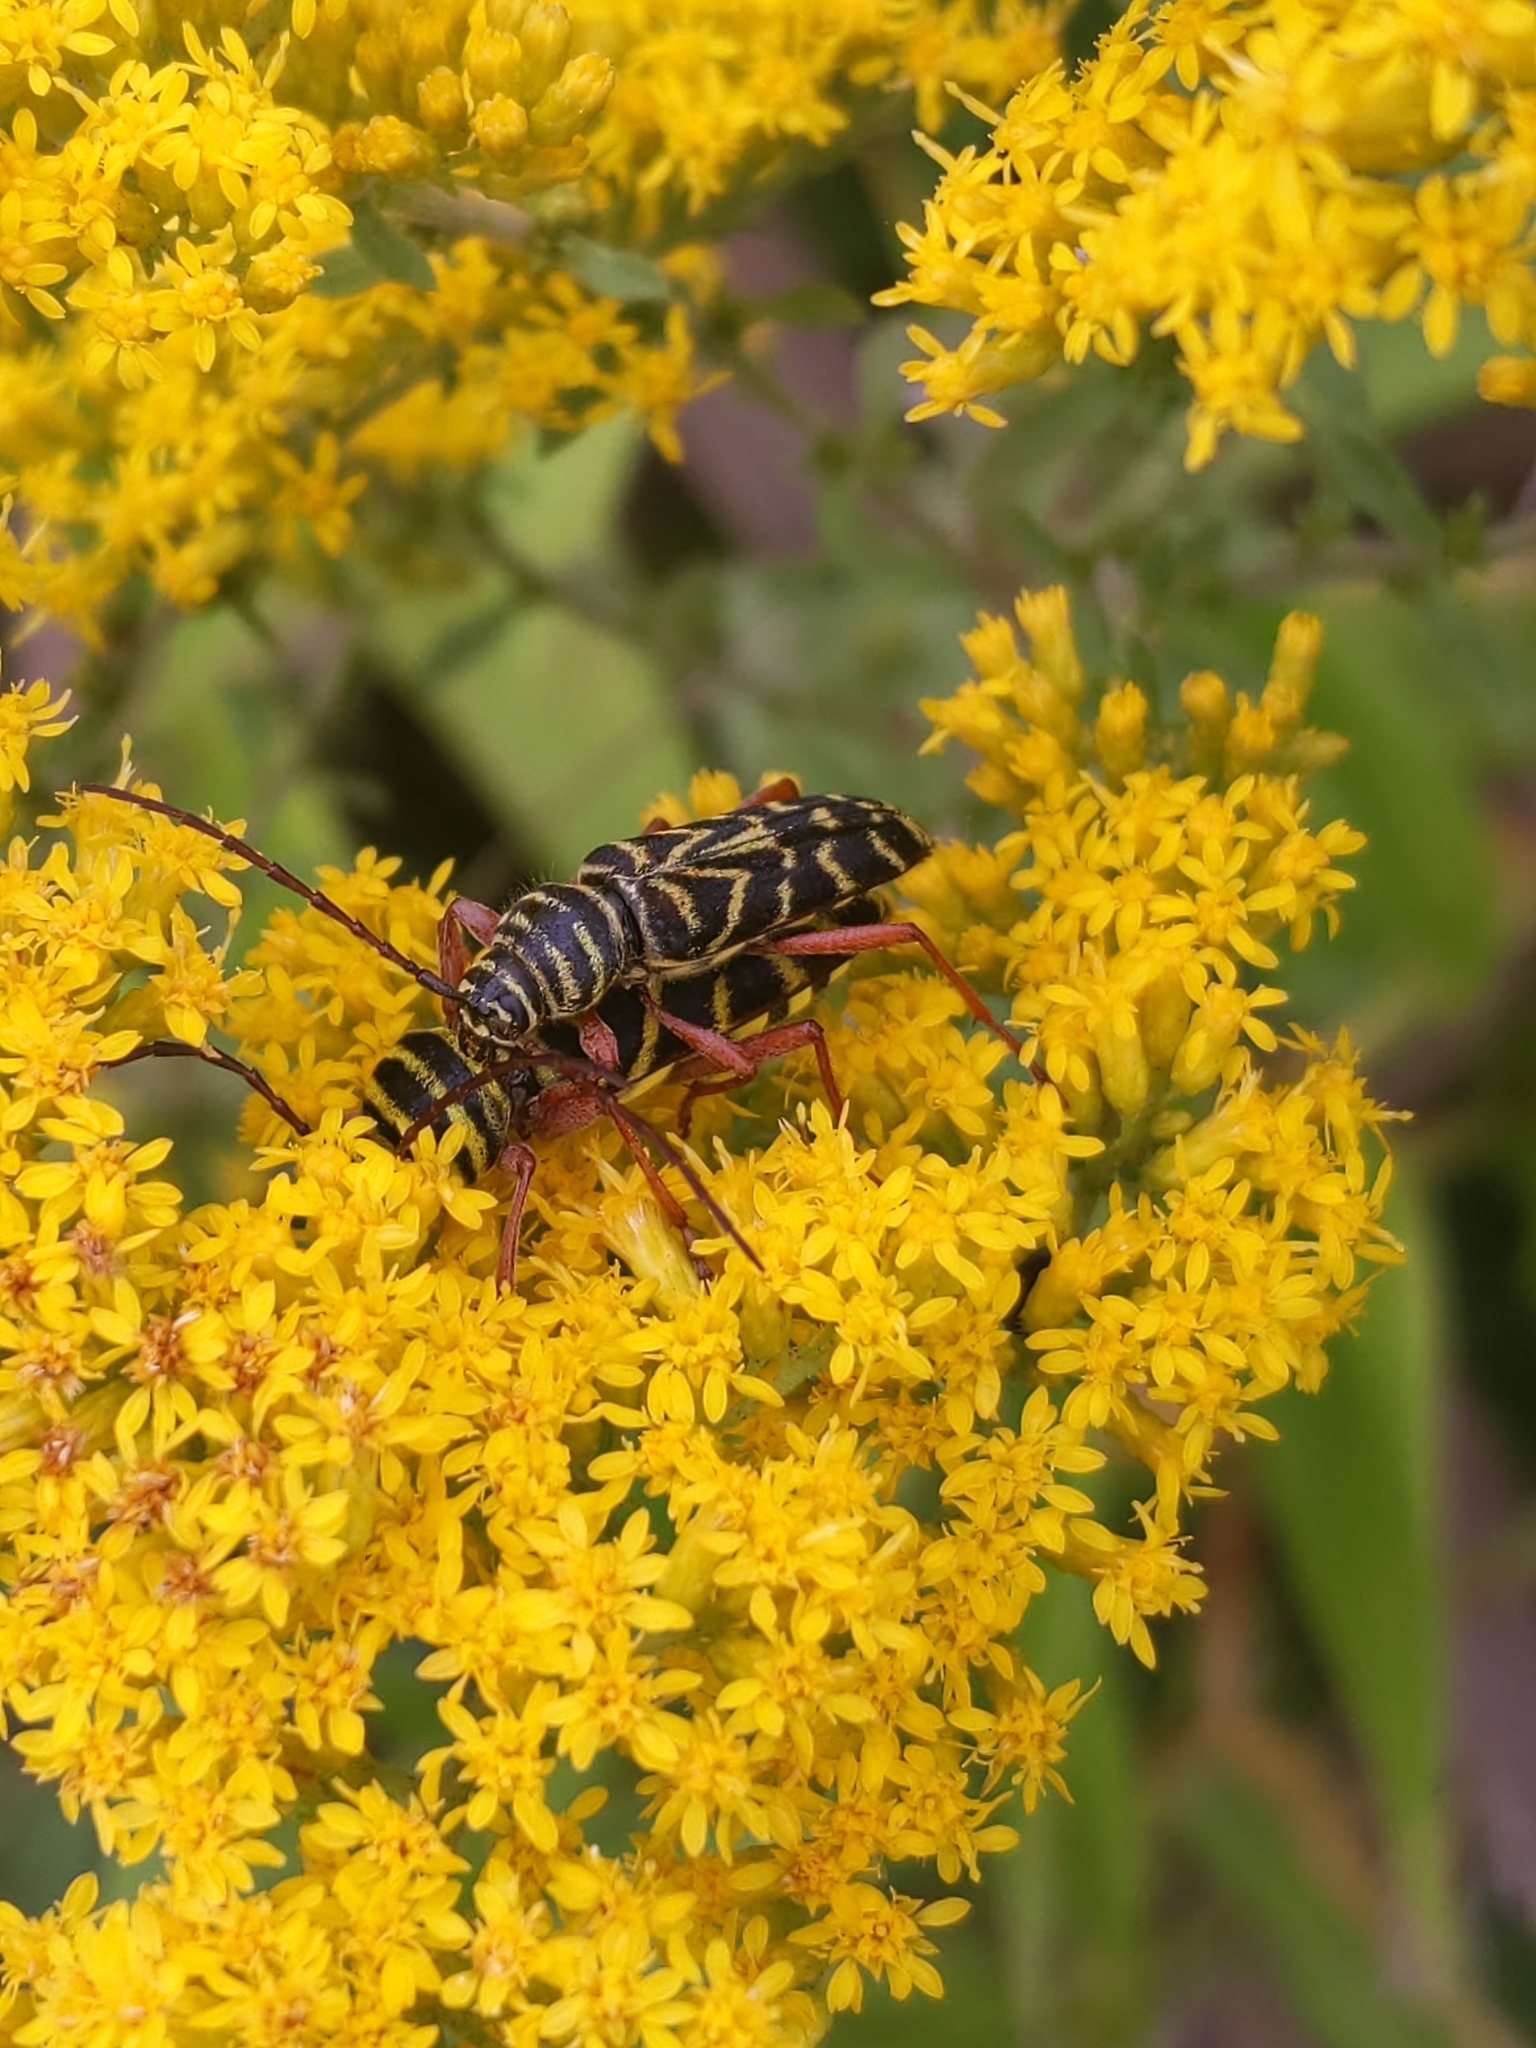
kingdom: Animalia
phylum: Arthropoda
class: Insecta
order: Coleoptera
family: Cerambycidae
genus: Megacyllene
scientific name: Megacyllene robiniae
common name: Locust borer
